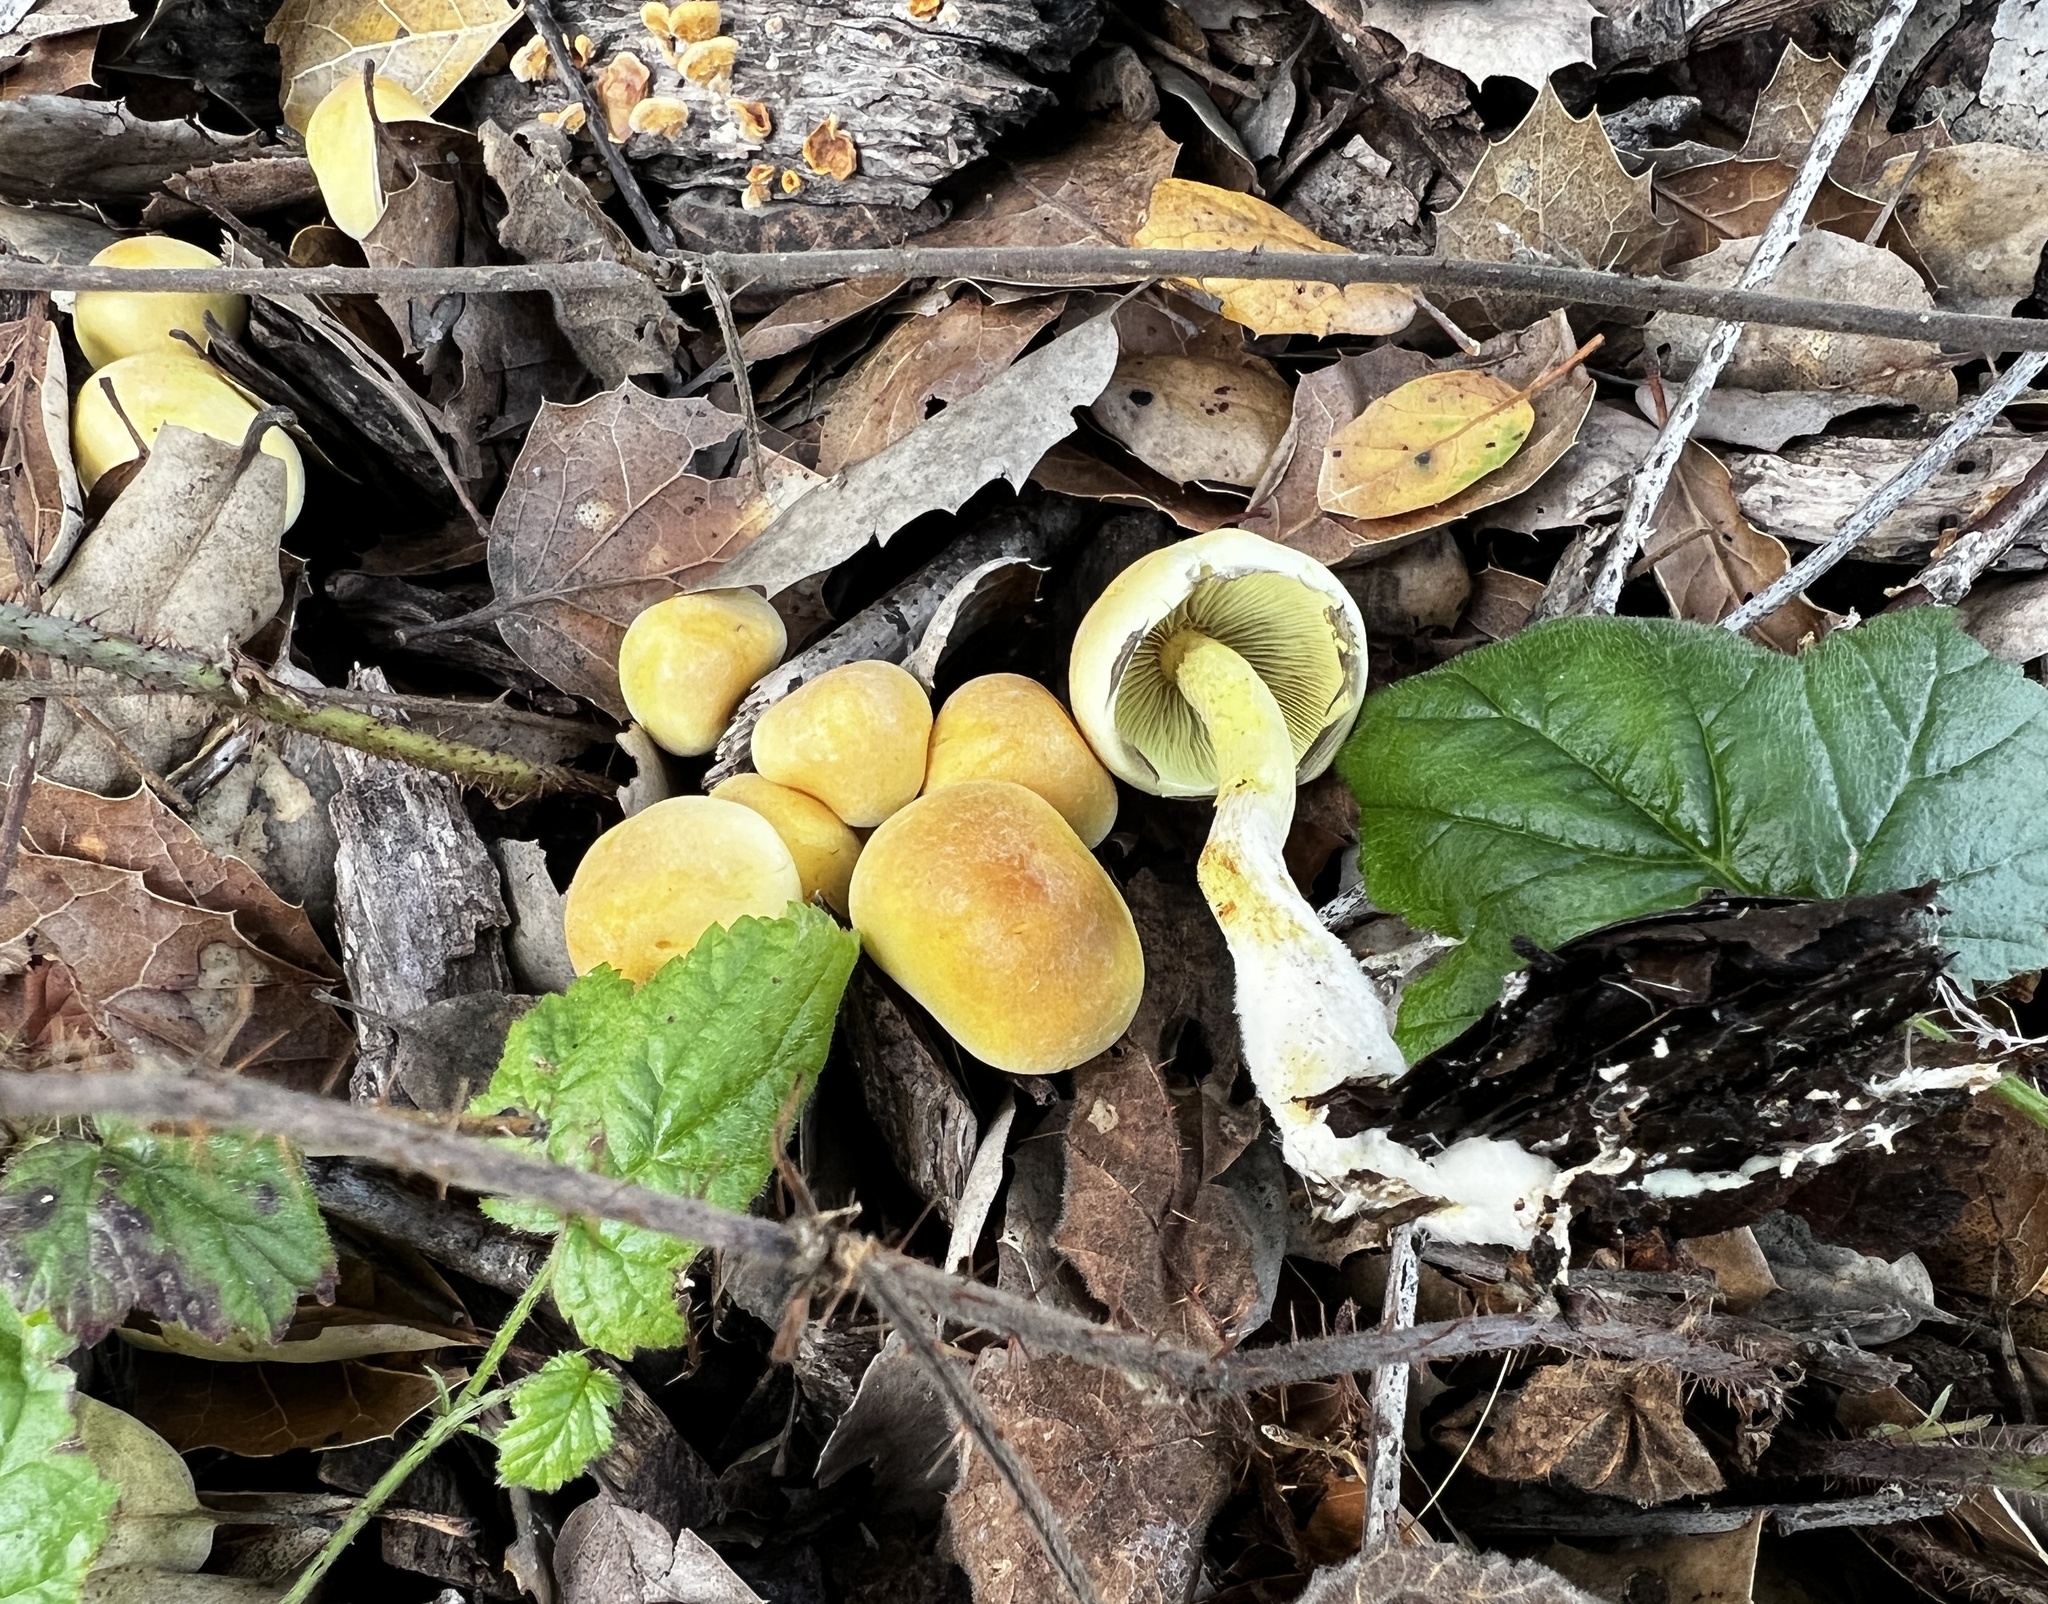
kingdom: Fungi
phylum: Basidiomycota
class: Agaricomycetes
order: Agaricales
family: Strophariaceae
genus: Hypholoma
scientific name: Hypholoma fasciculare
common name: Sulphur tuft
